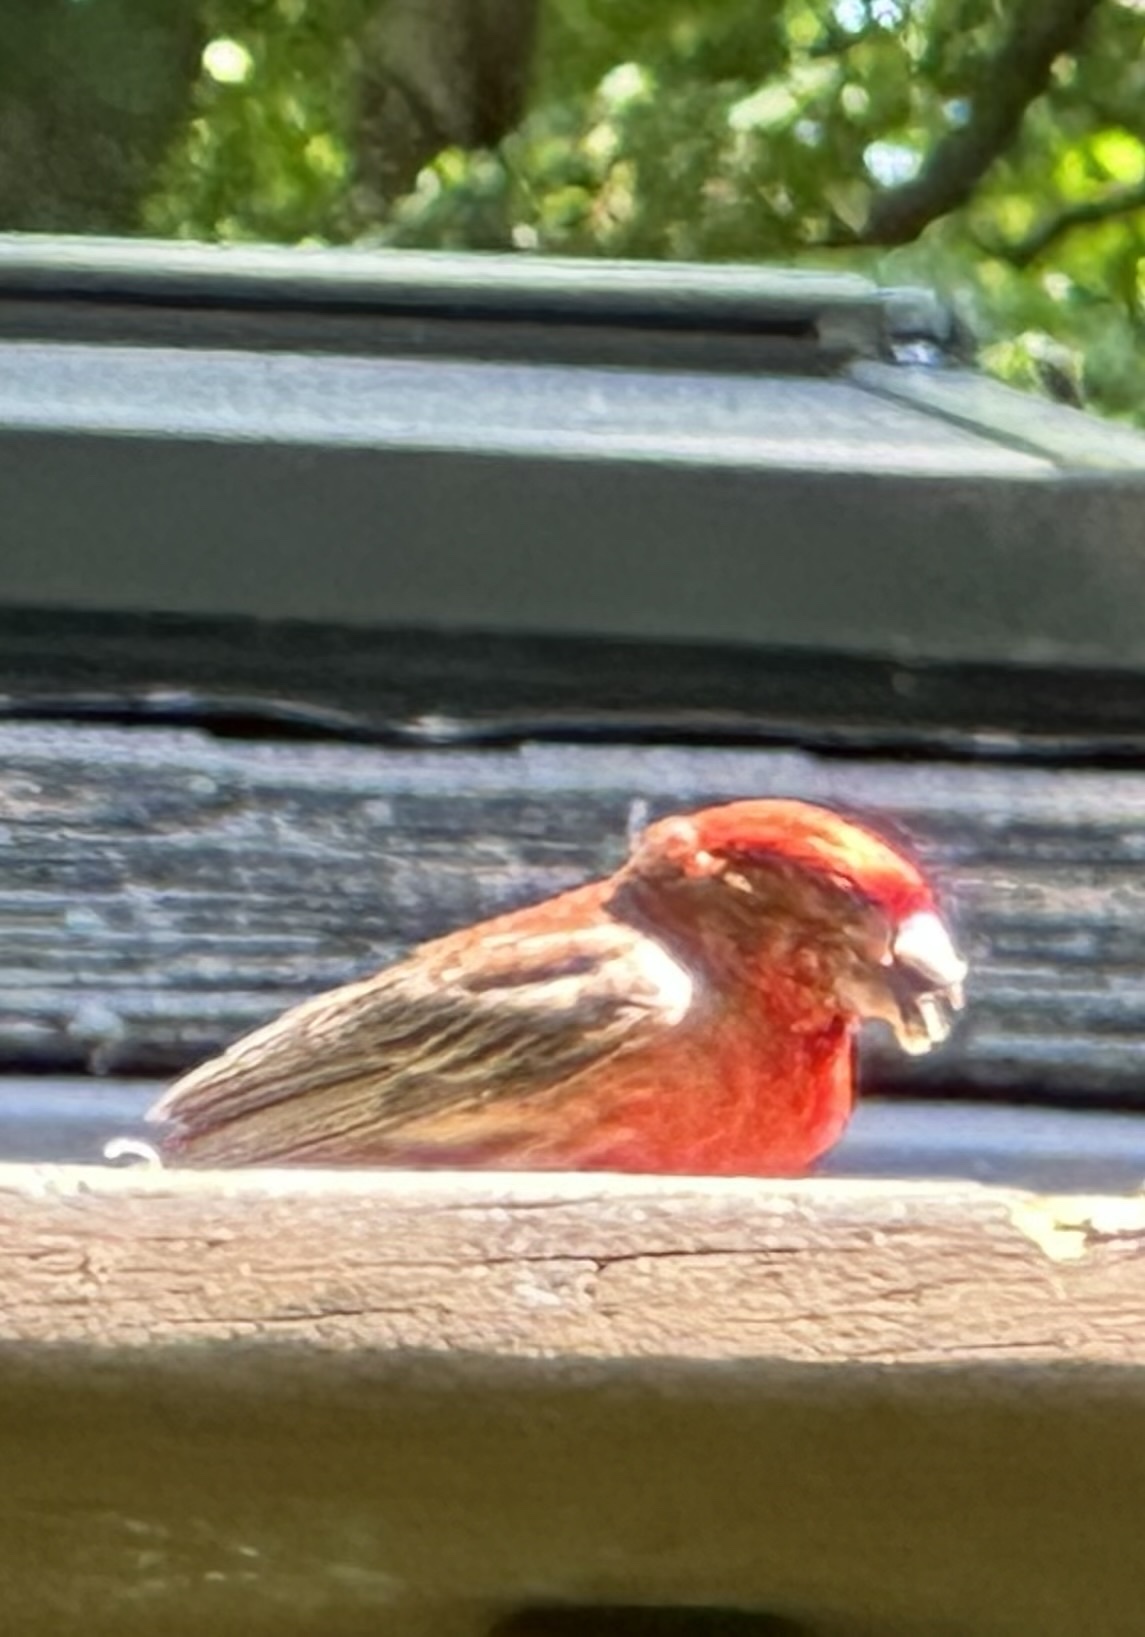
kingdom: Animalia
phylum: Chordata
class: Aves
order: Passeriformes
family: Fringillidae
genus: Haemorhous
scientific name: Haemorhous mexicanus
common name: House finch
